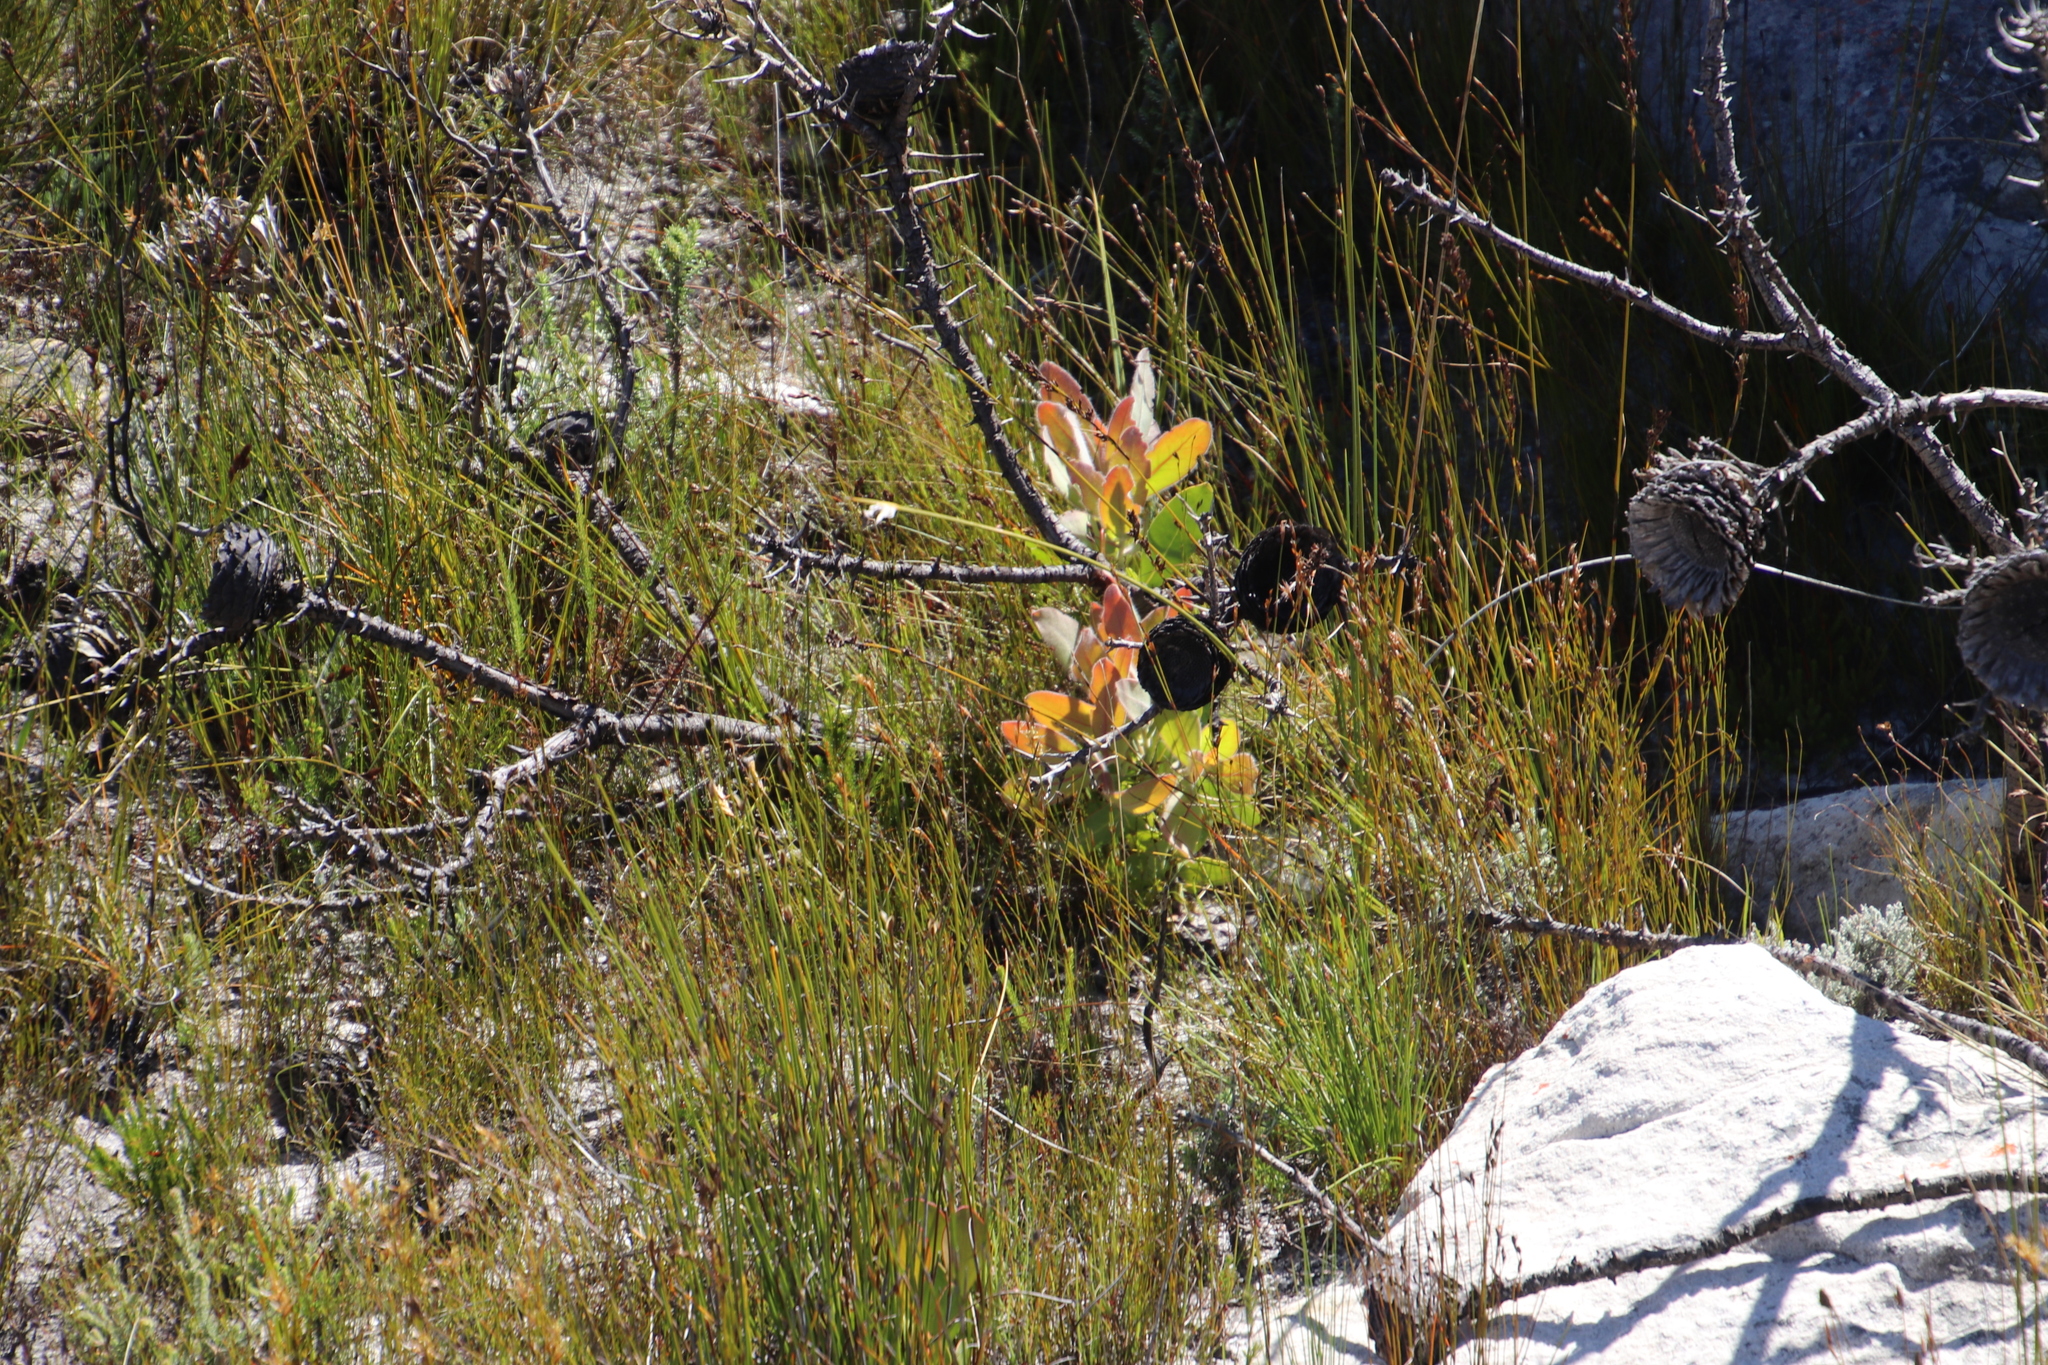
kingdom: Plantae
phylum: Tracheophyta
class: Magnoliopsida
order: Proteales
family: Proteaceae
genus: Protea
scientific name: Protea magnifica
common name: Bearded sugarbush
